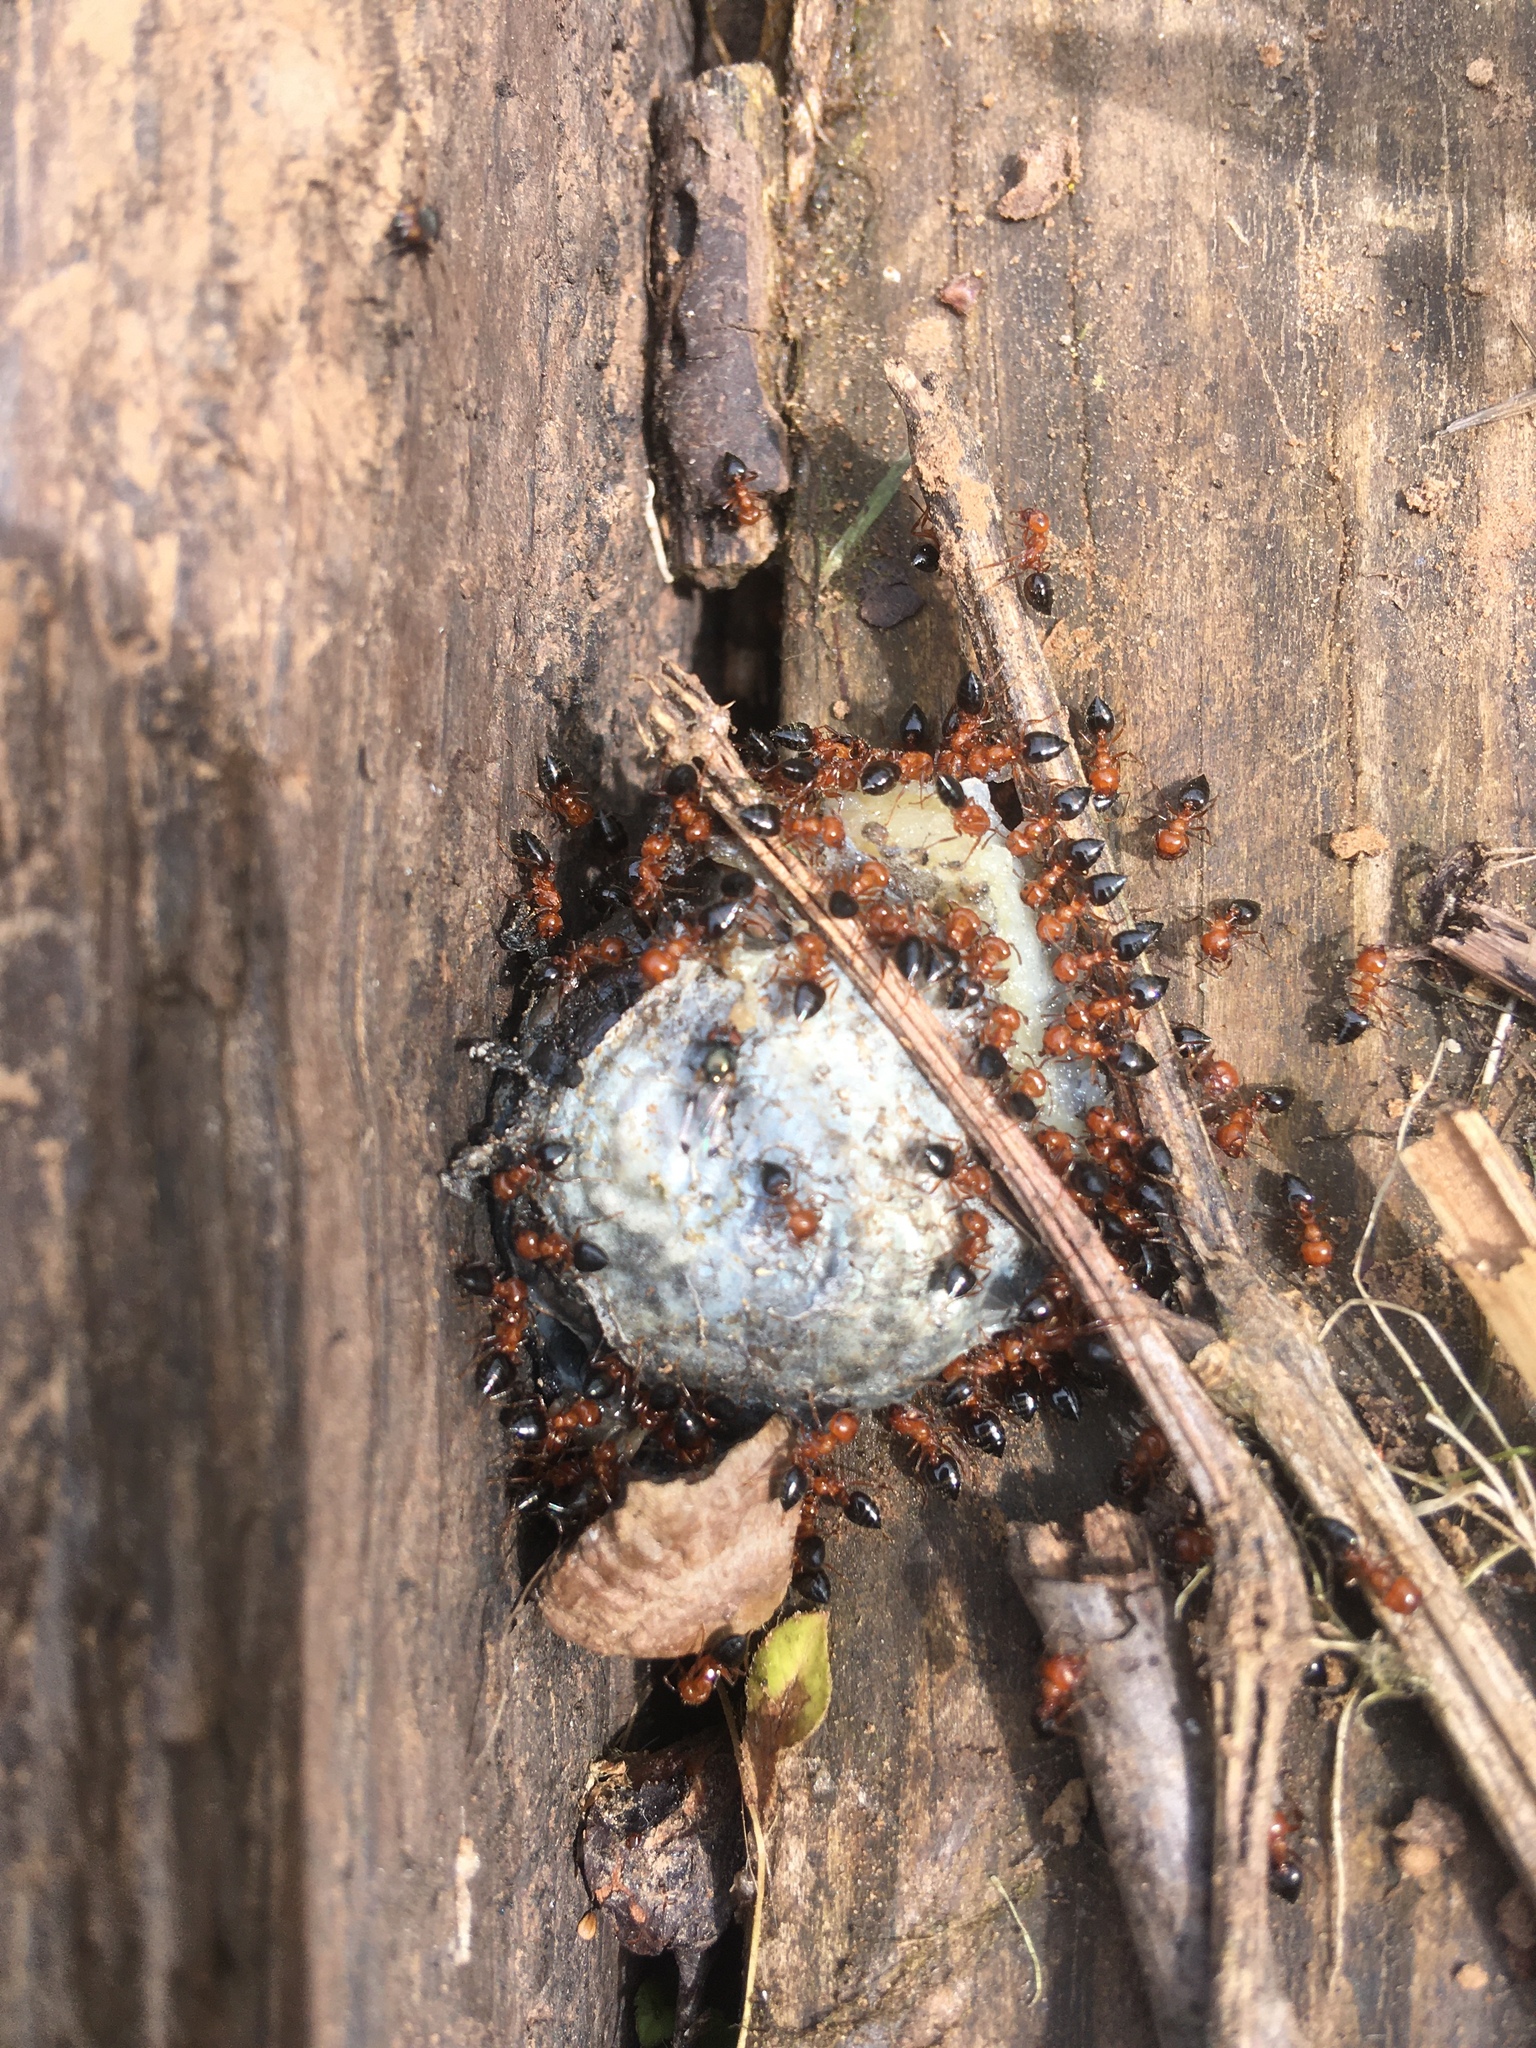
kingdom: Animalia
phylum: Arthropoda
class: Insecta
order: Hymenoptera
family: Formicidae
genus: Crematogaster
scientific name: Crematogaster laeviuscula
